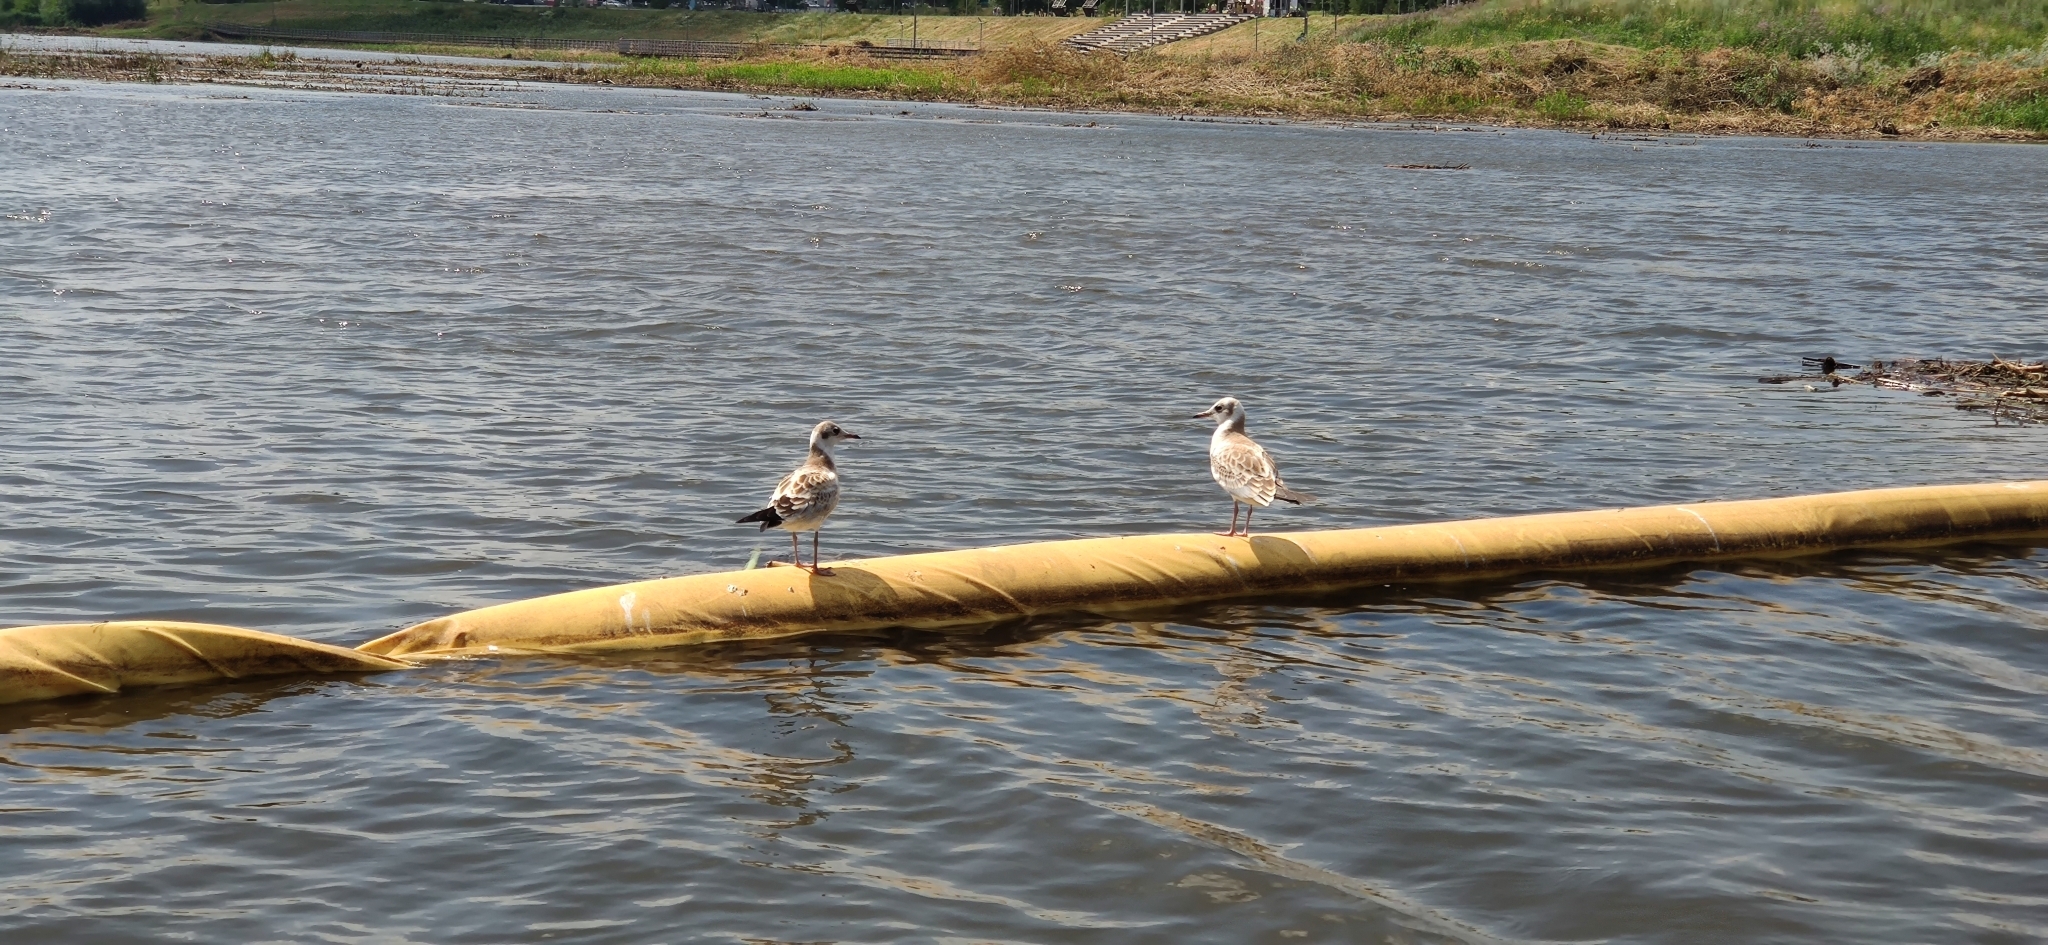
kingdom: Animalia
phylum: Chordata
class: Aves
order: Charadriiformes
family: Laridae
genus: Chroicocephalus
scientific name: Chroicocephalus ridibundus
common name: Black-headed gull
